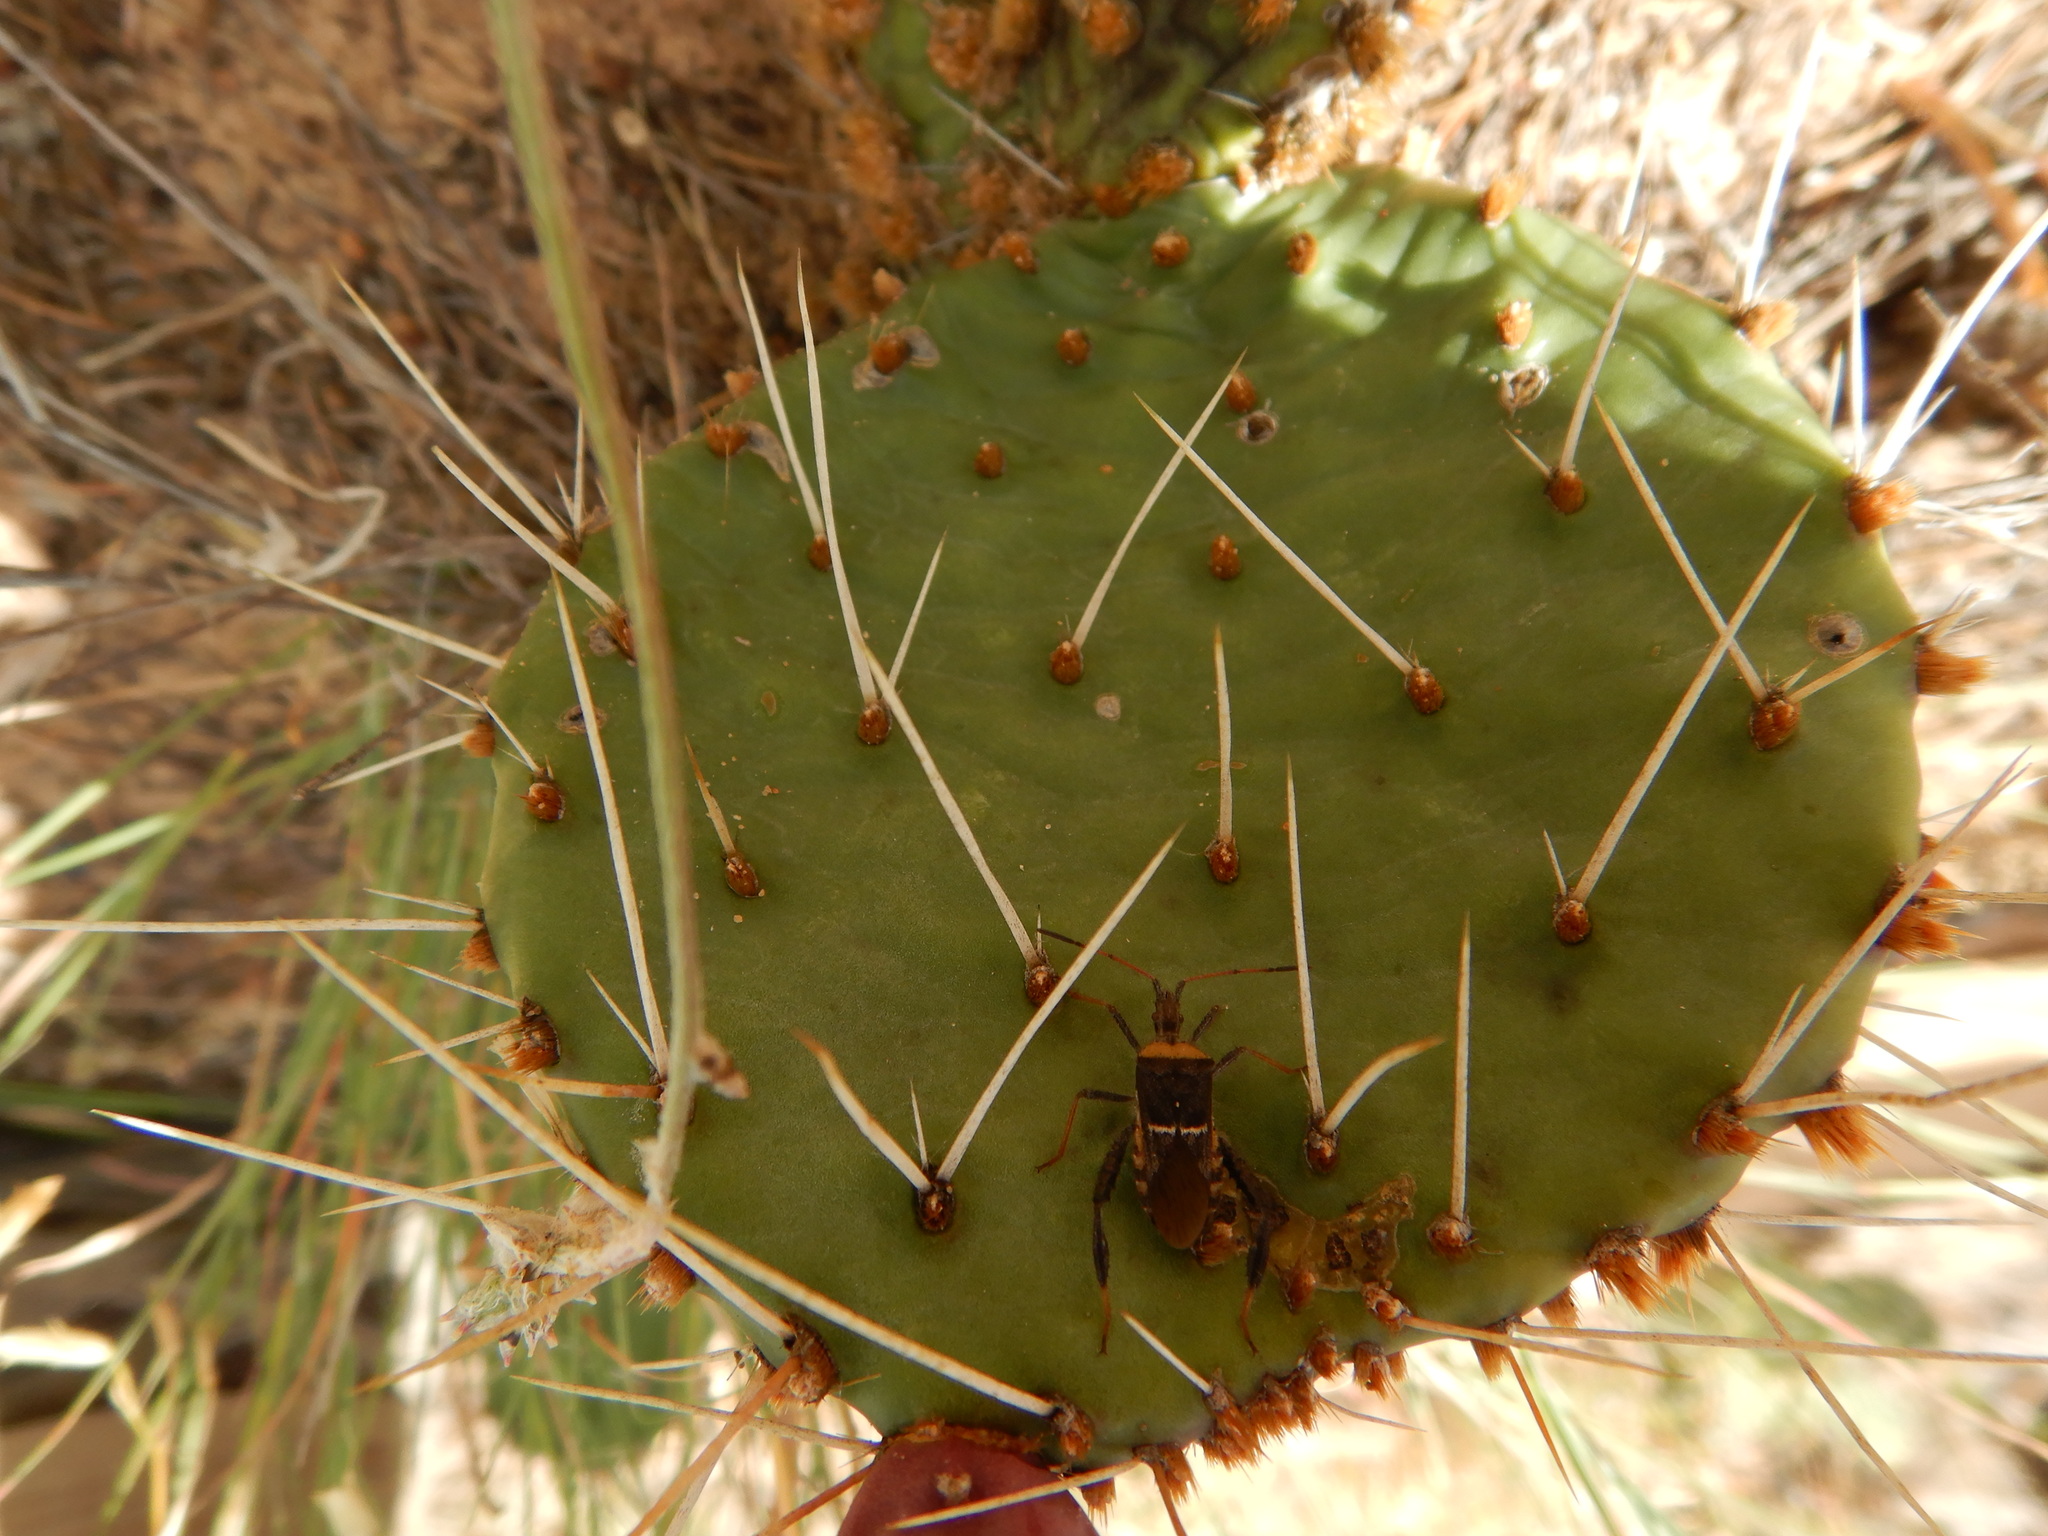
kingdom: Animalia
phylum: Arthropoda
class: Insecta
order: Hemiptera
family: Coreidae
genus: Narnia
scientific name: Narnia snowi
